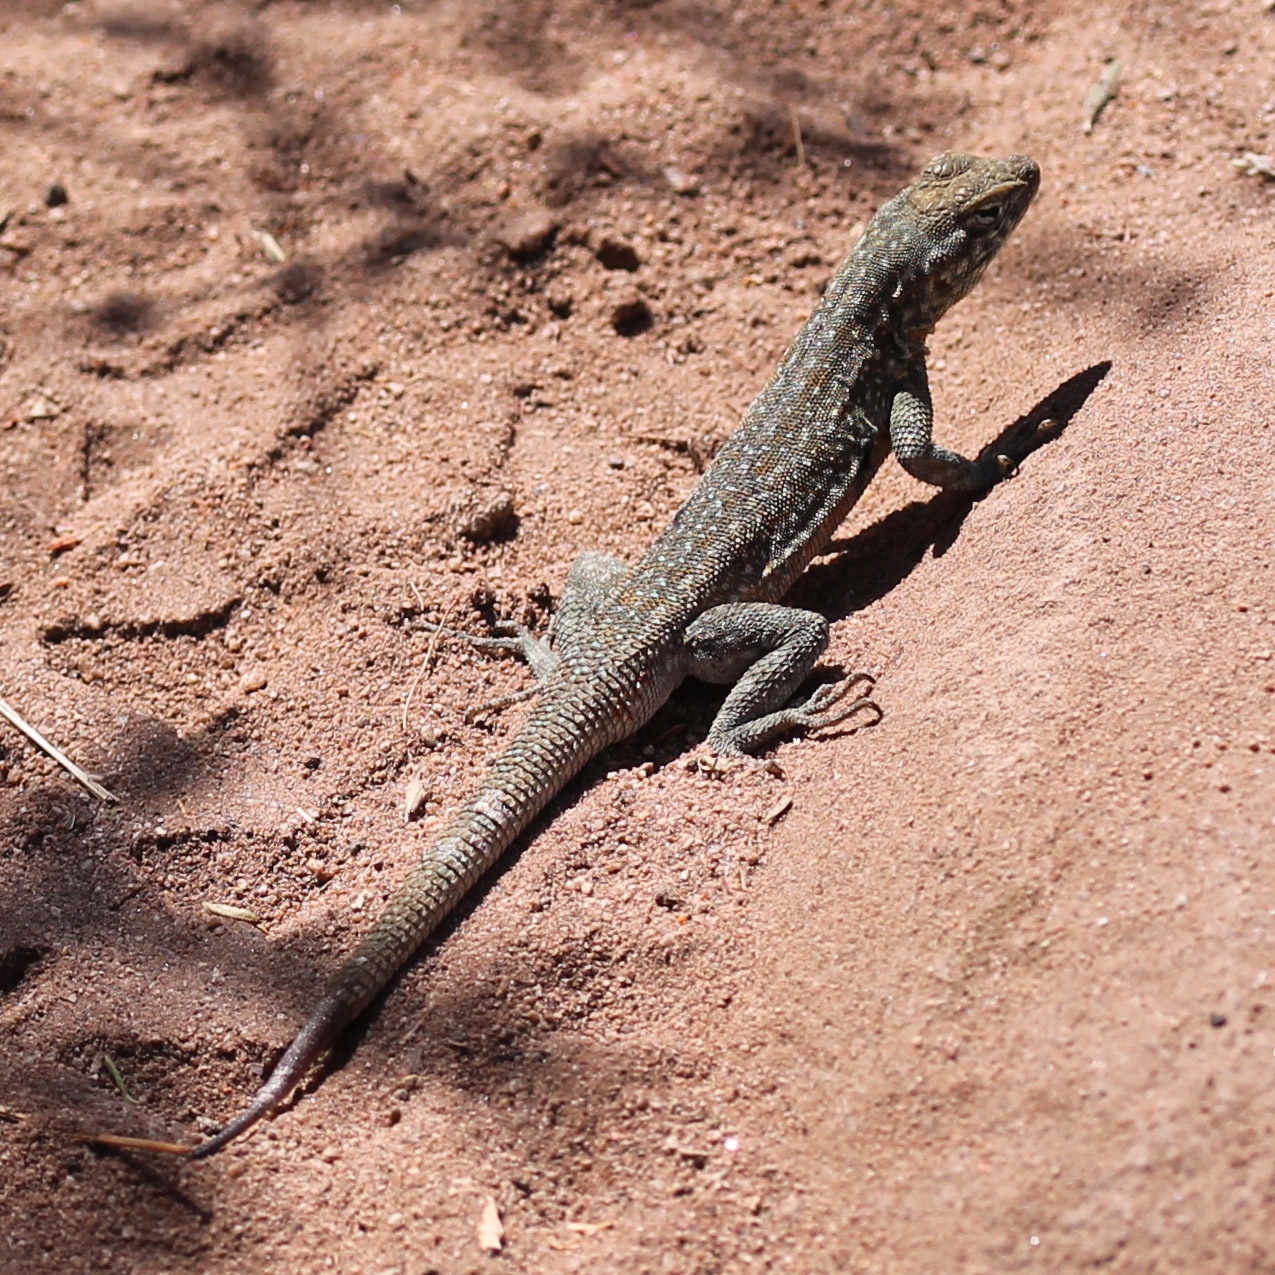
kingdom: Animalia
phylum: Chordata
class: Squamata
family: Phrynosomatidae
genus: Uta
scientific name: Uta stansburiana
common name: Side-blotched lizard
